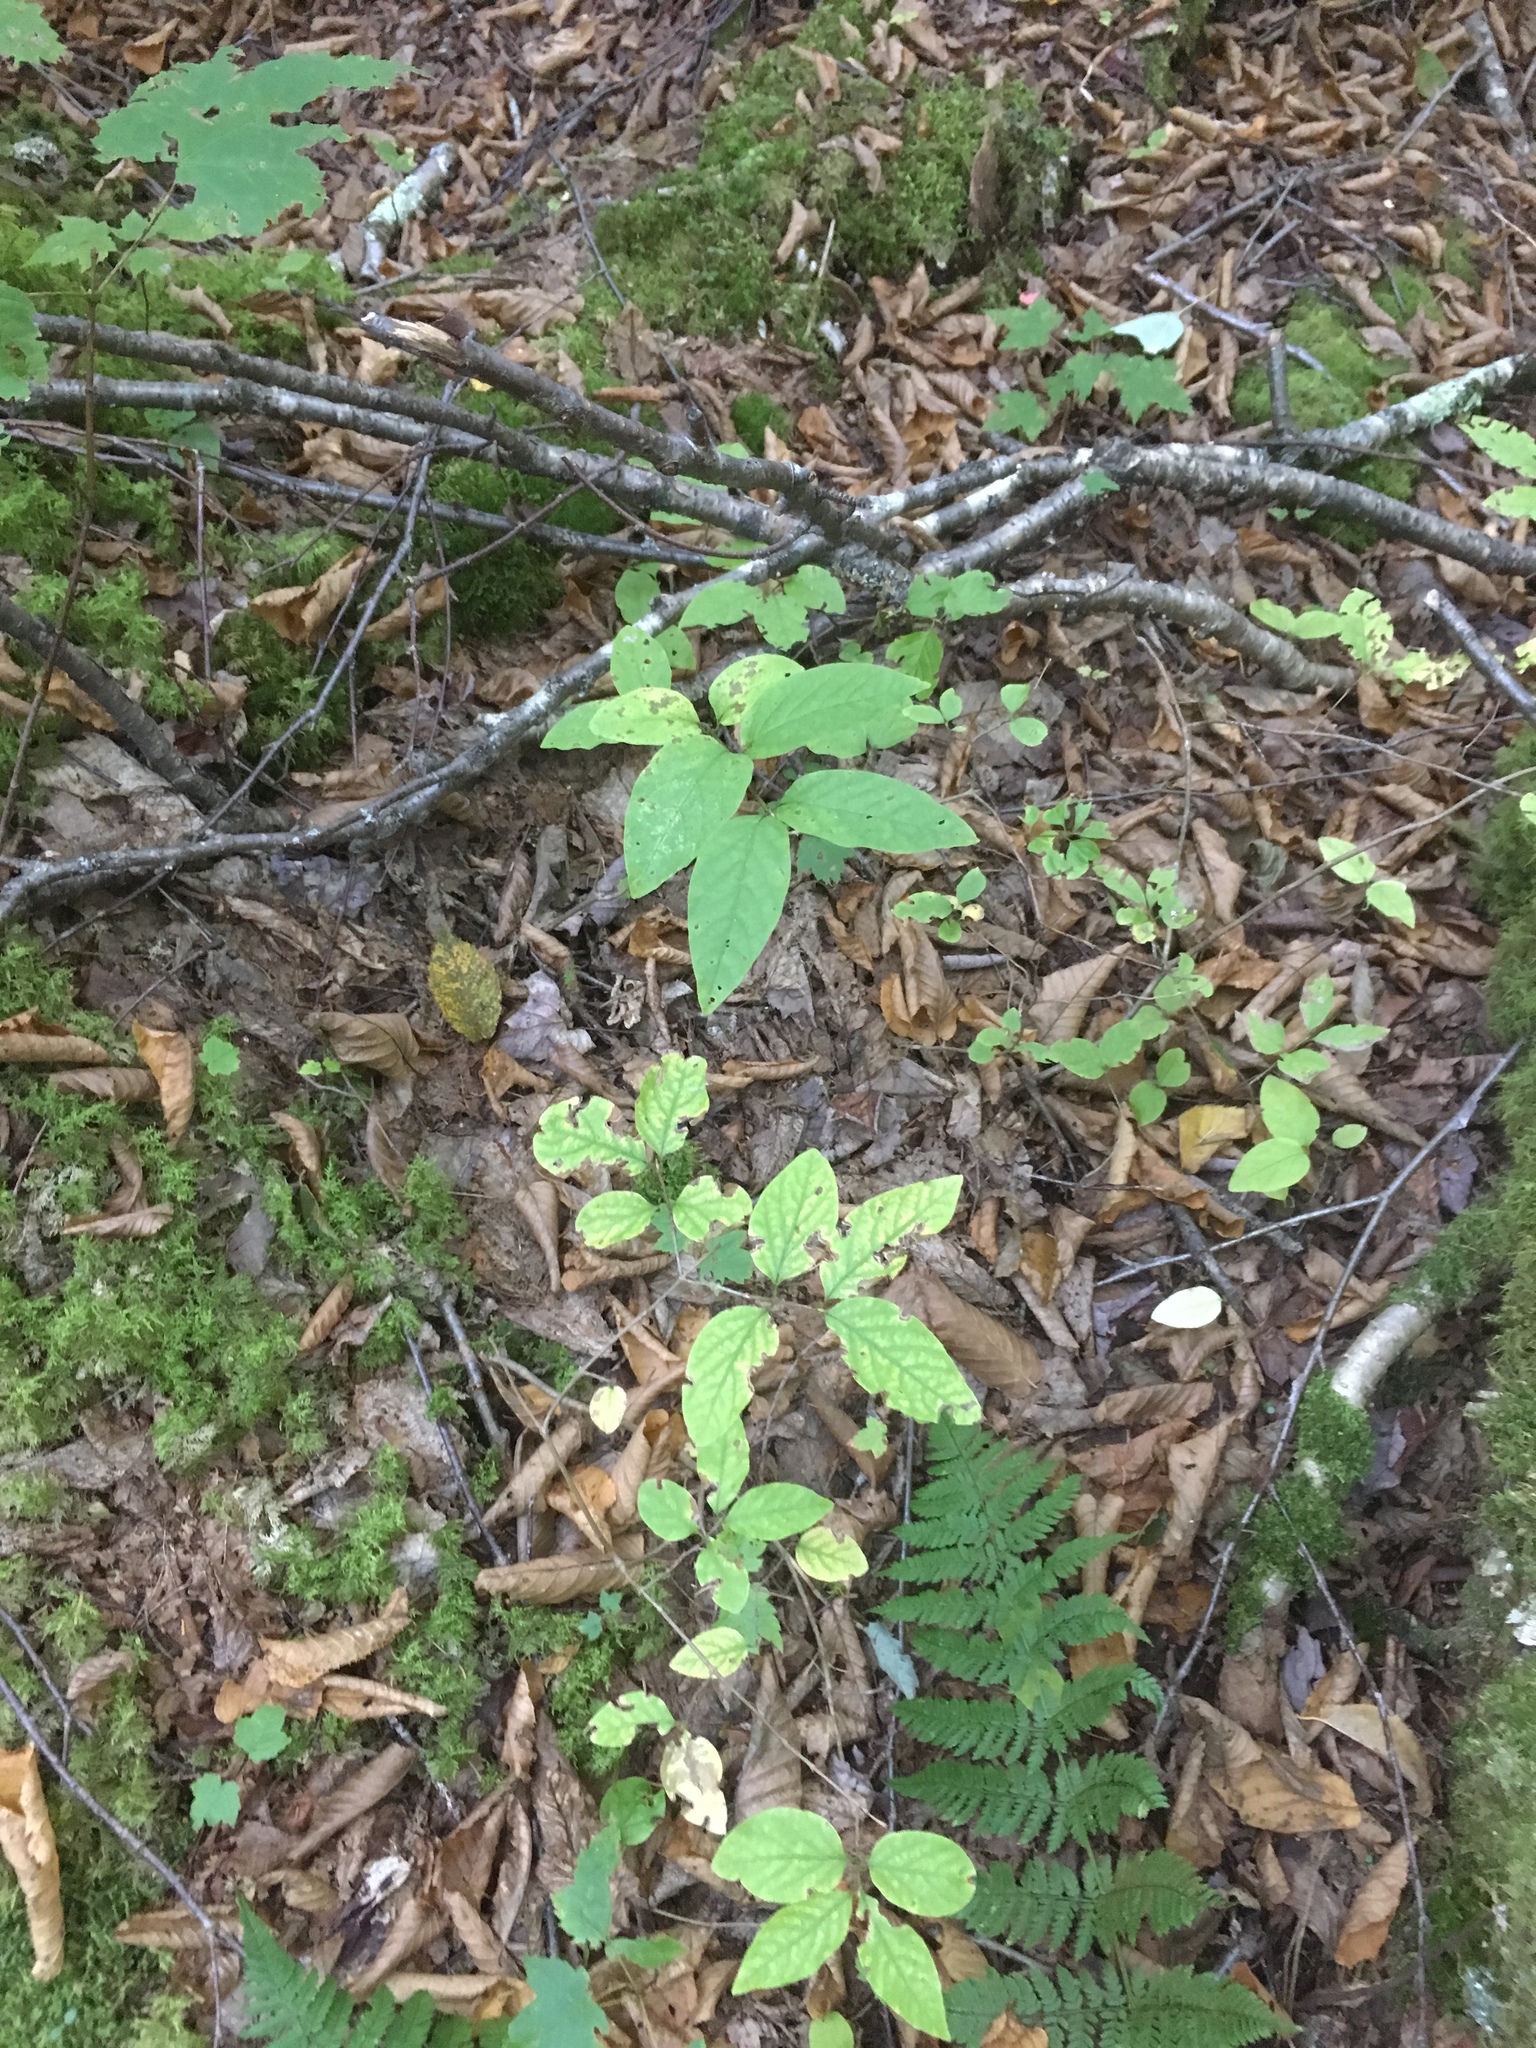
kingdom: Plantae
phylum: Tracheophyta
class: Magnoliopsida
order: Dipsacales
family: Caprifoliaceae
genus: Lonicera
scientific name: Lonicera canadensis
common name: American fly-honeysuckle
